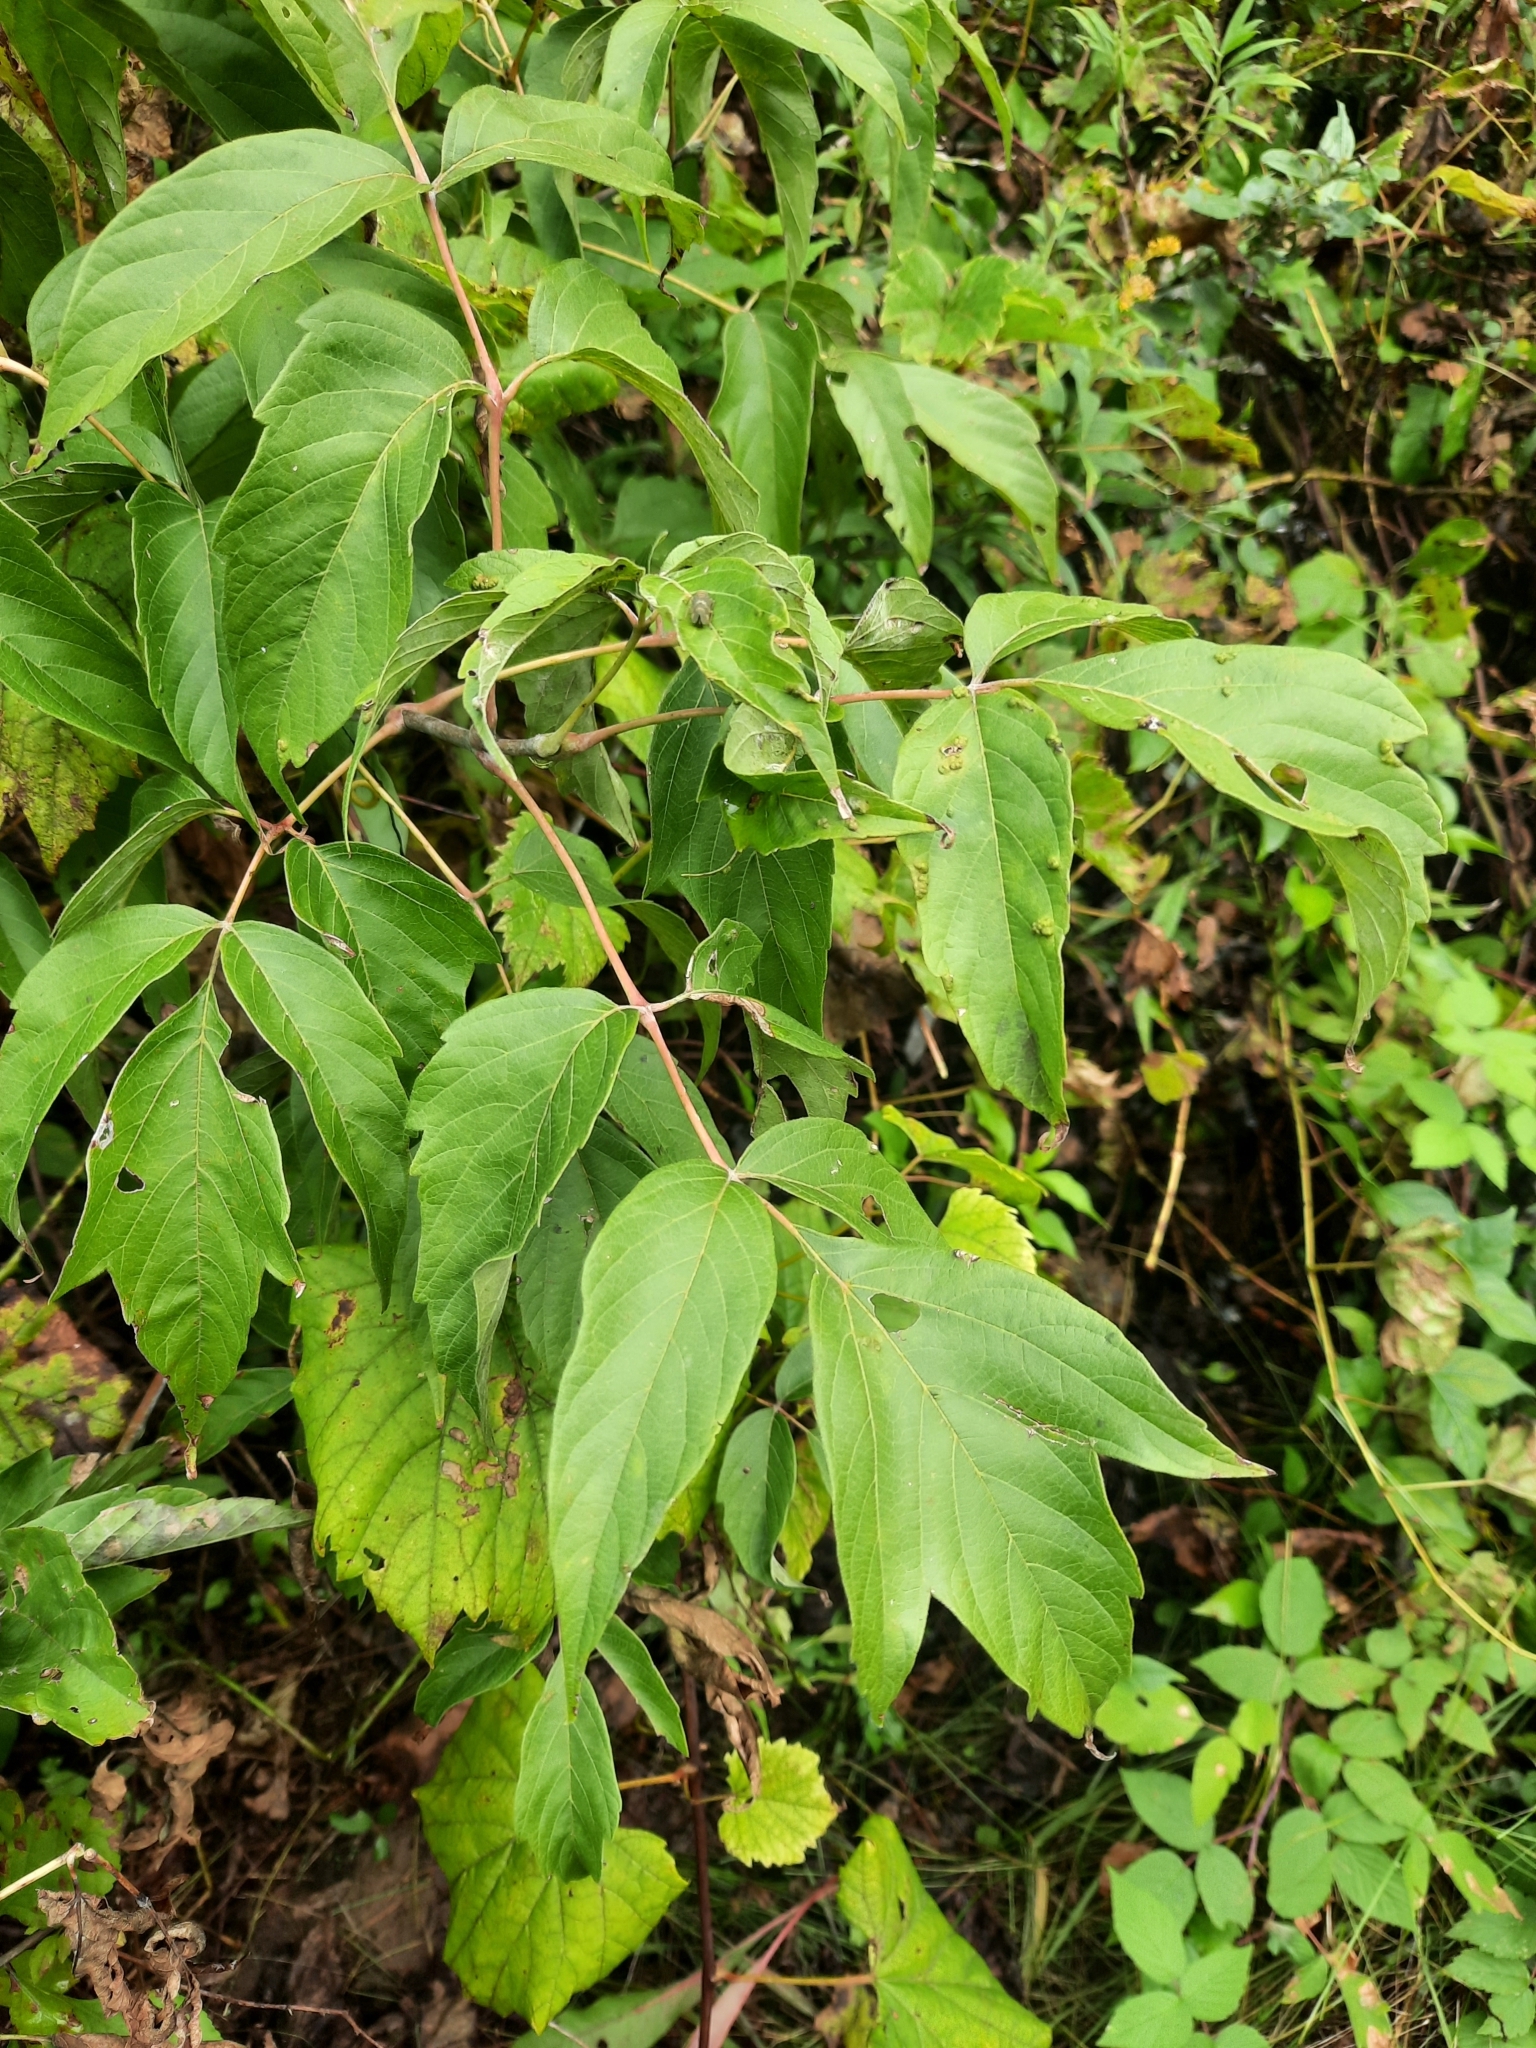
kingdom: Plantae
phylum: Tracheophyta
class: Magnoliopsida
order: Sapindales
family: Sapindaceae
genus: Acer
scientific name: Acer negundo
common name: Ashleaf maple
